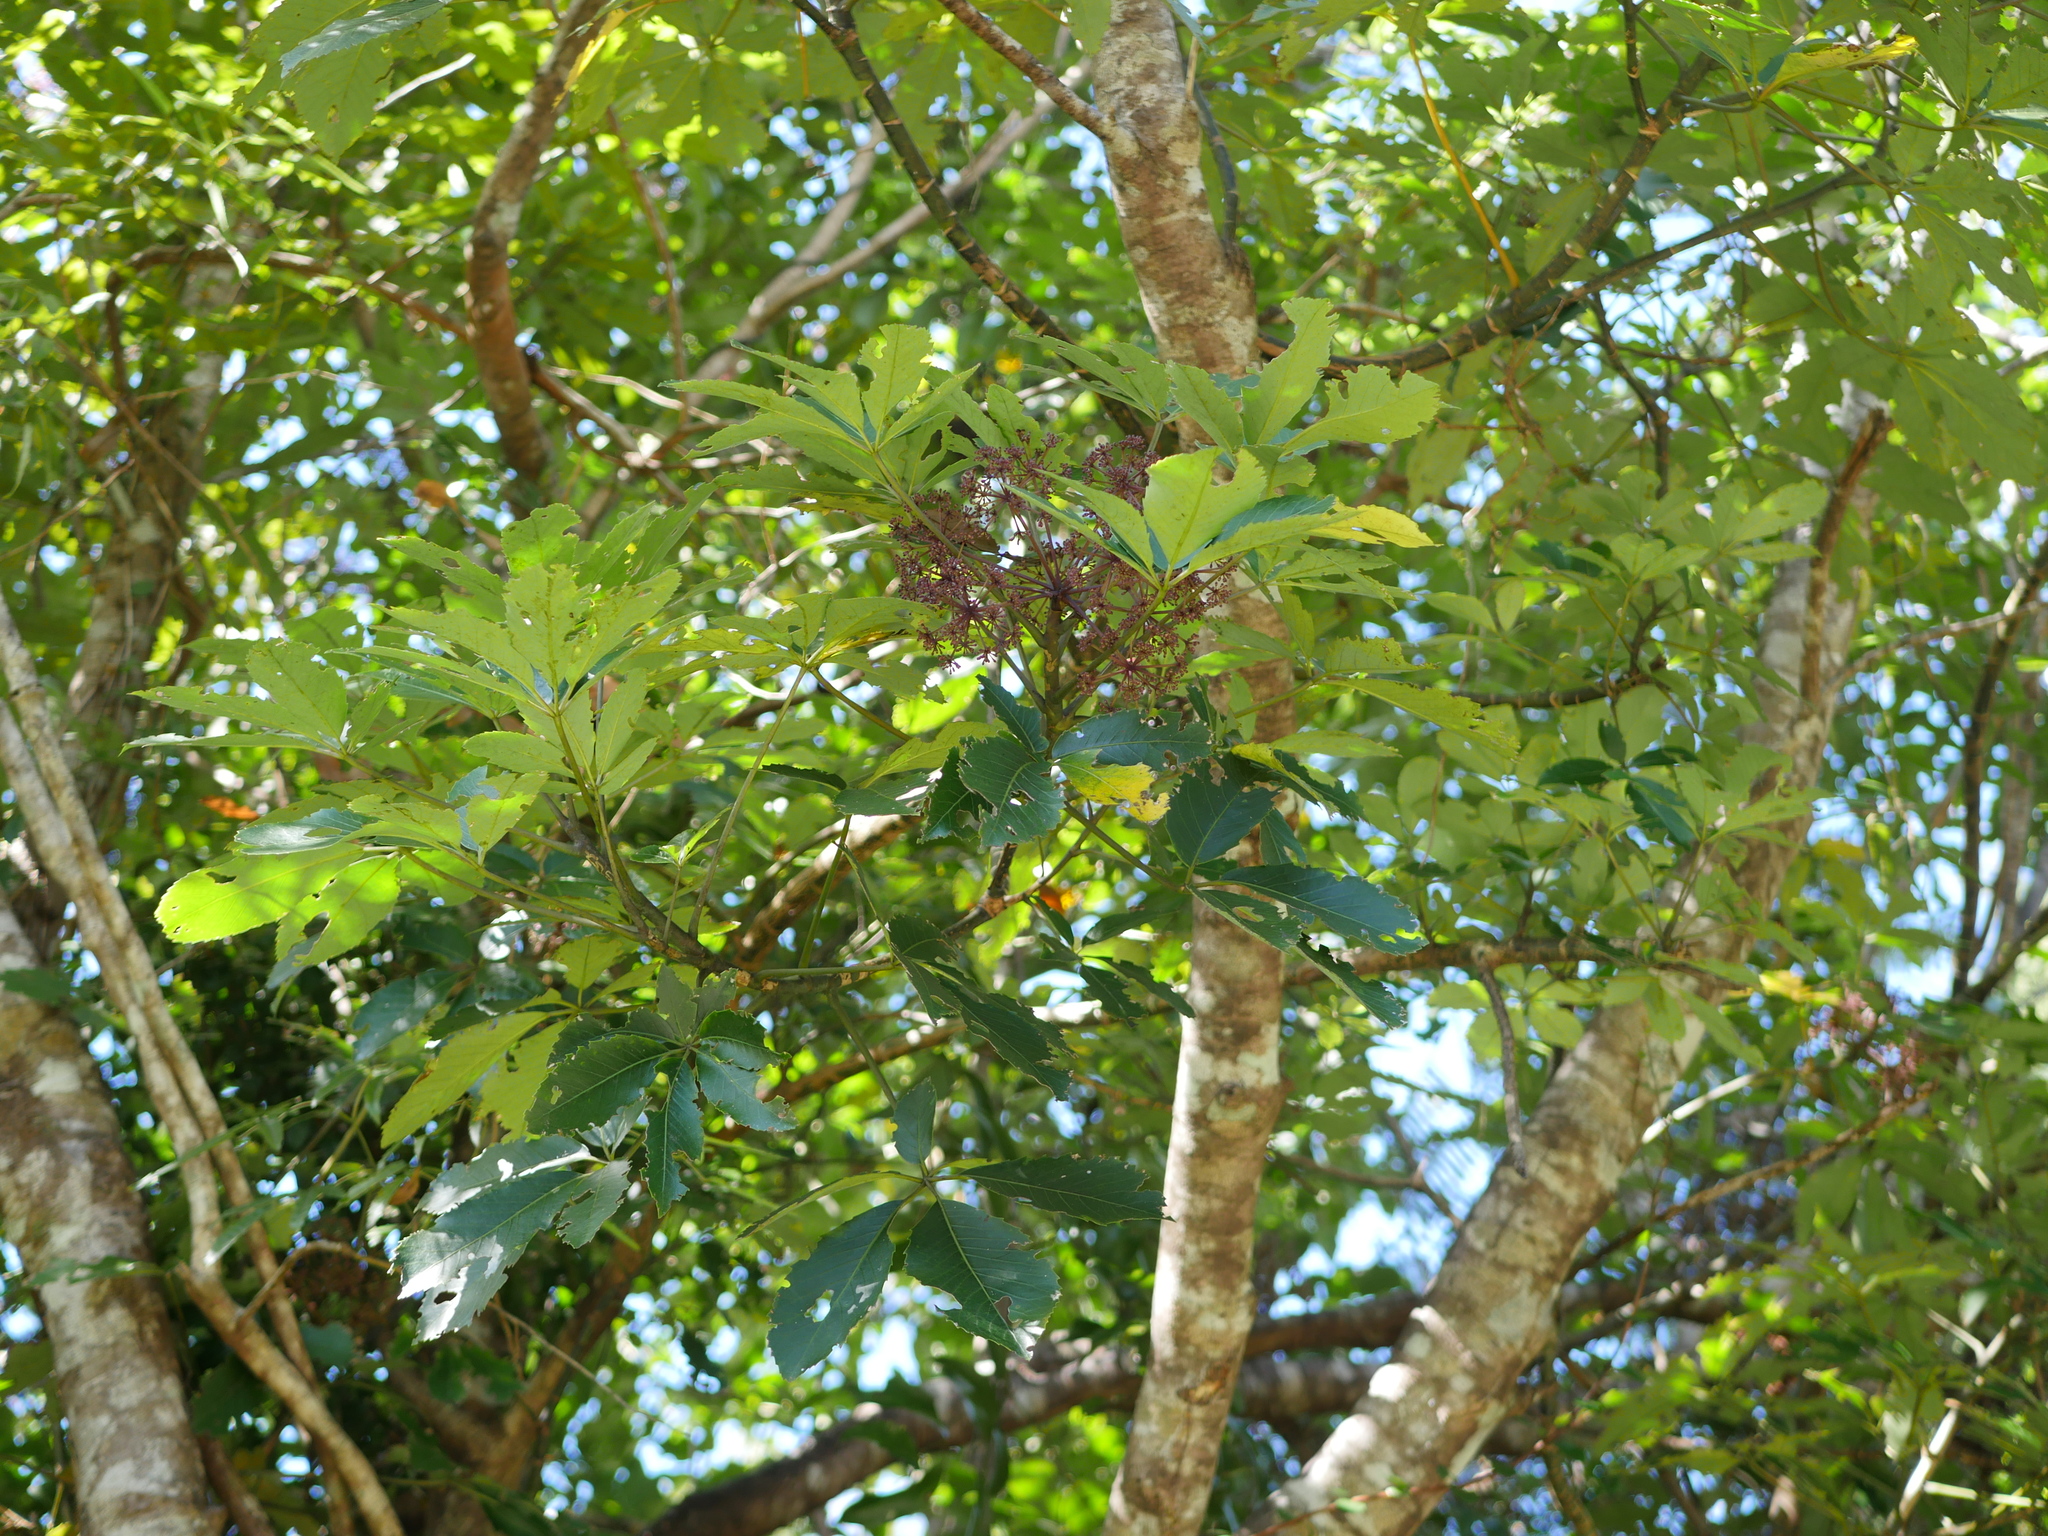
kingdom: Plantae
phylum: Tracheophyta
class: Magnoliopsida
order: Apiales
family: Araliaceae
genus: Neopanax
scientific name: Neopanax arboreus
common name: Five-fingers
